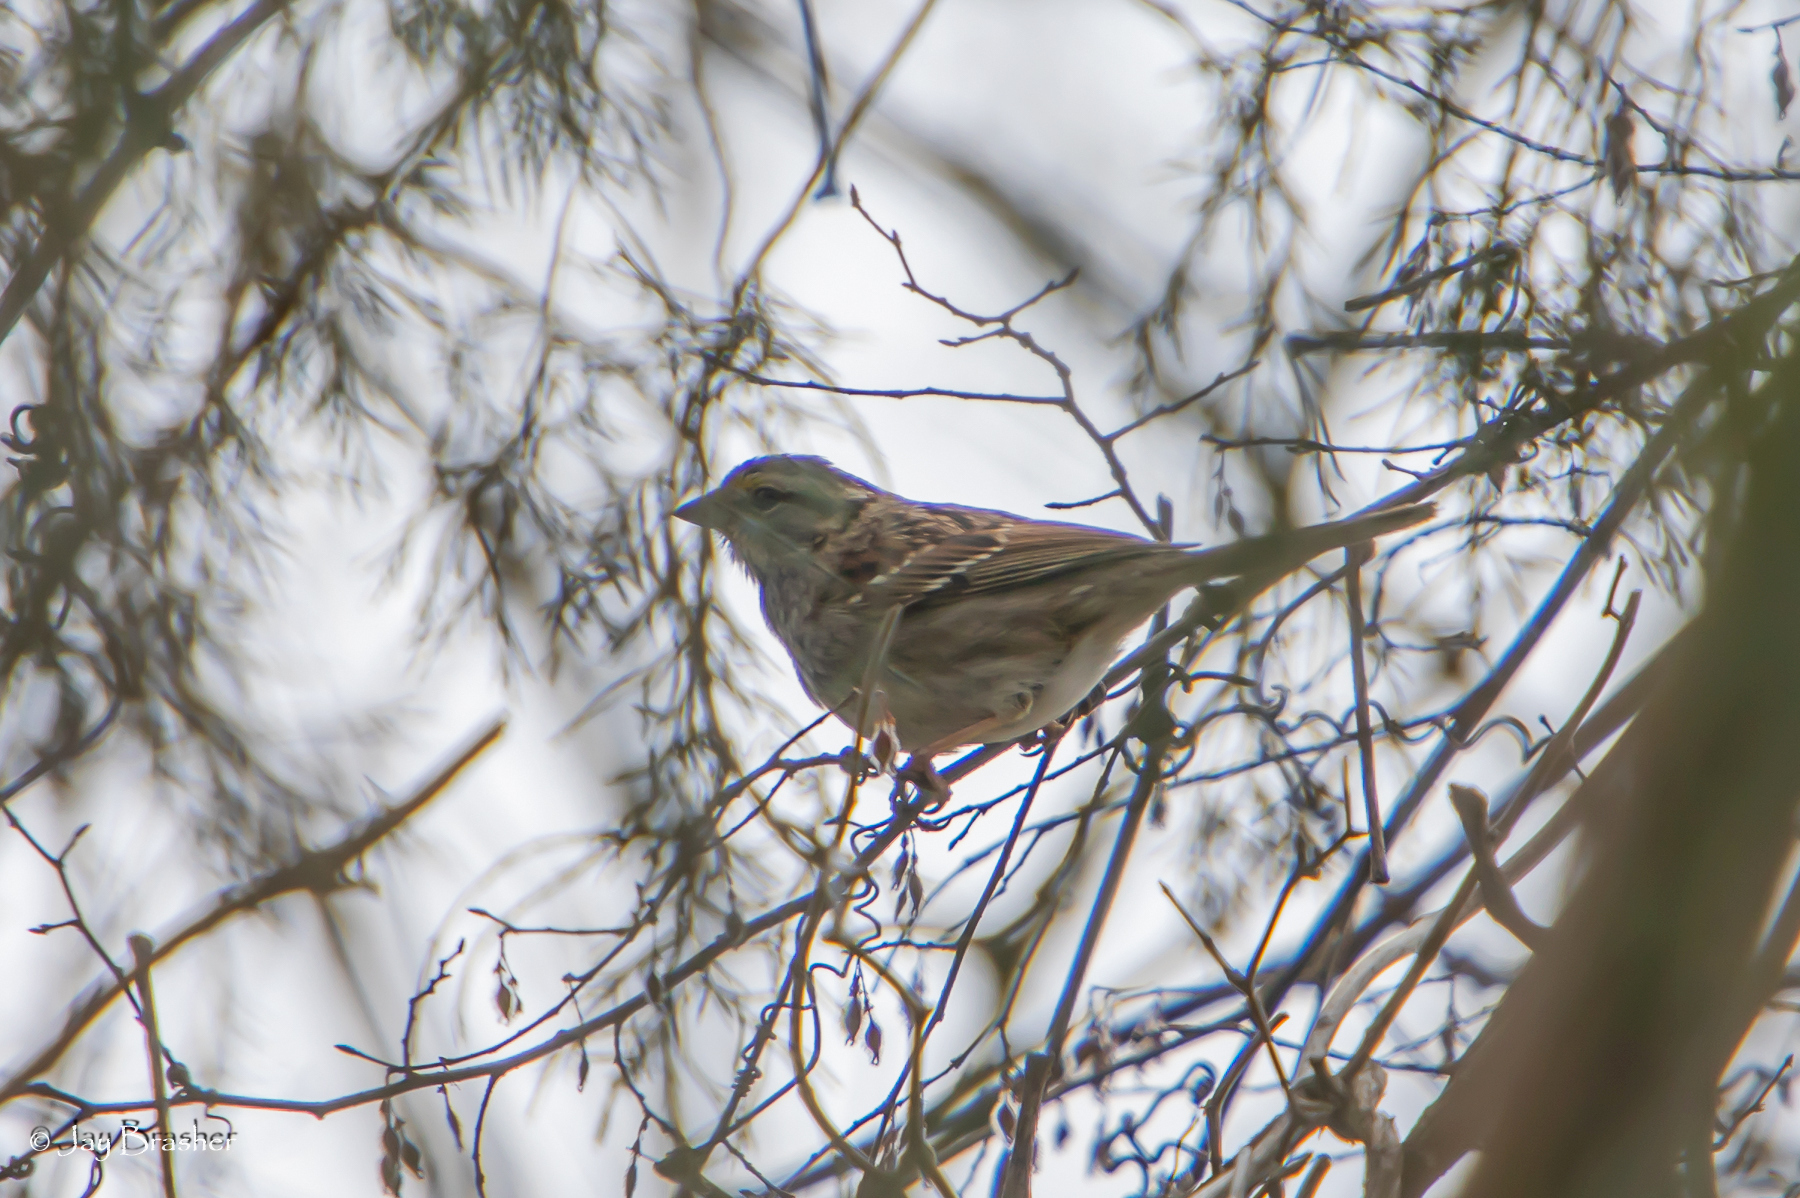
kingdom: Animalia
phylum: Chordata
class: Aves
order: Passeriformes
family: Passerellidae
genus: Zonotrichia
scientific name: Zonotrichia albicollis
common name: White-throated sparrow
